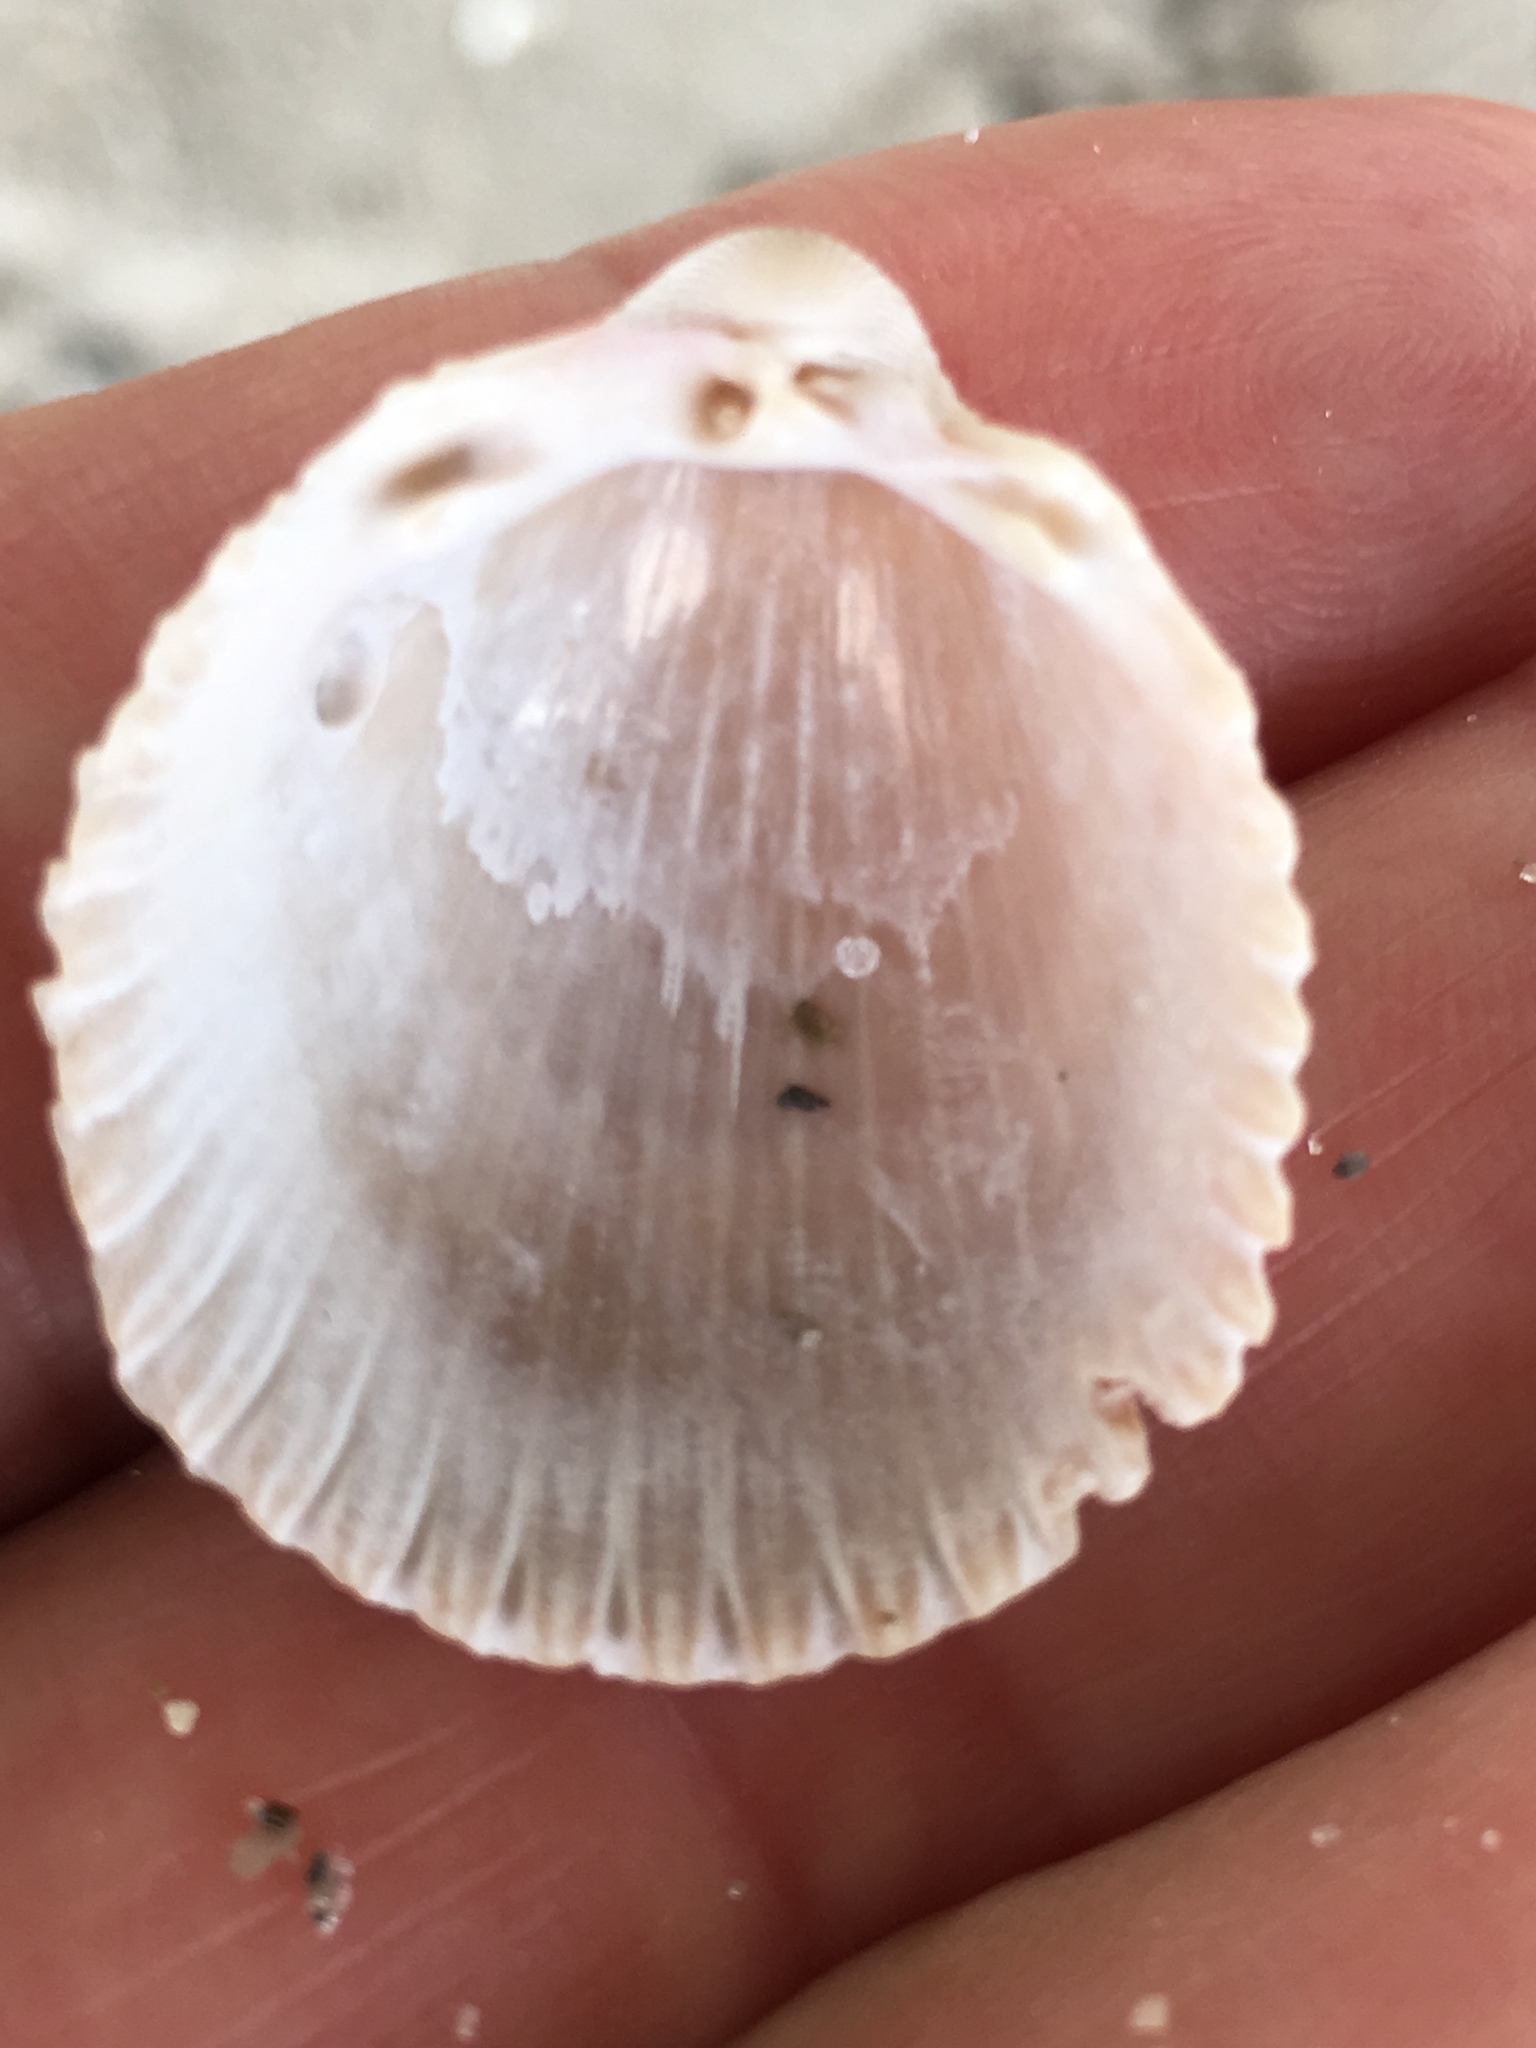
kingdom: Animalia
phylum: Mollusca
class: Bivalvia
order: Cardiida
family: Cardiidae
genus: Trachycardium
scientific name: Trachycardium egmontianum
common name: Florida pricklycockle
